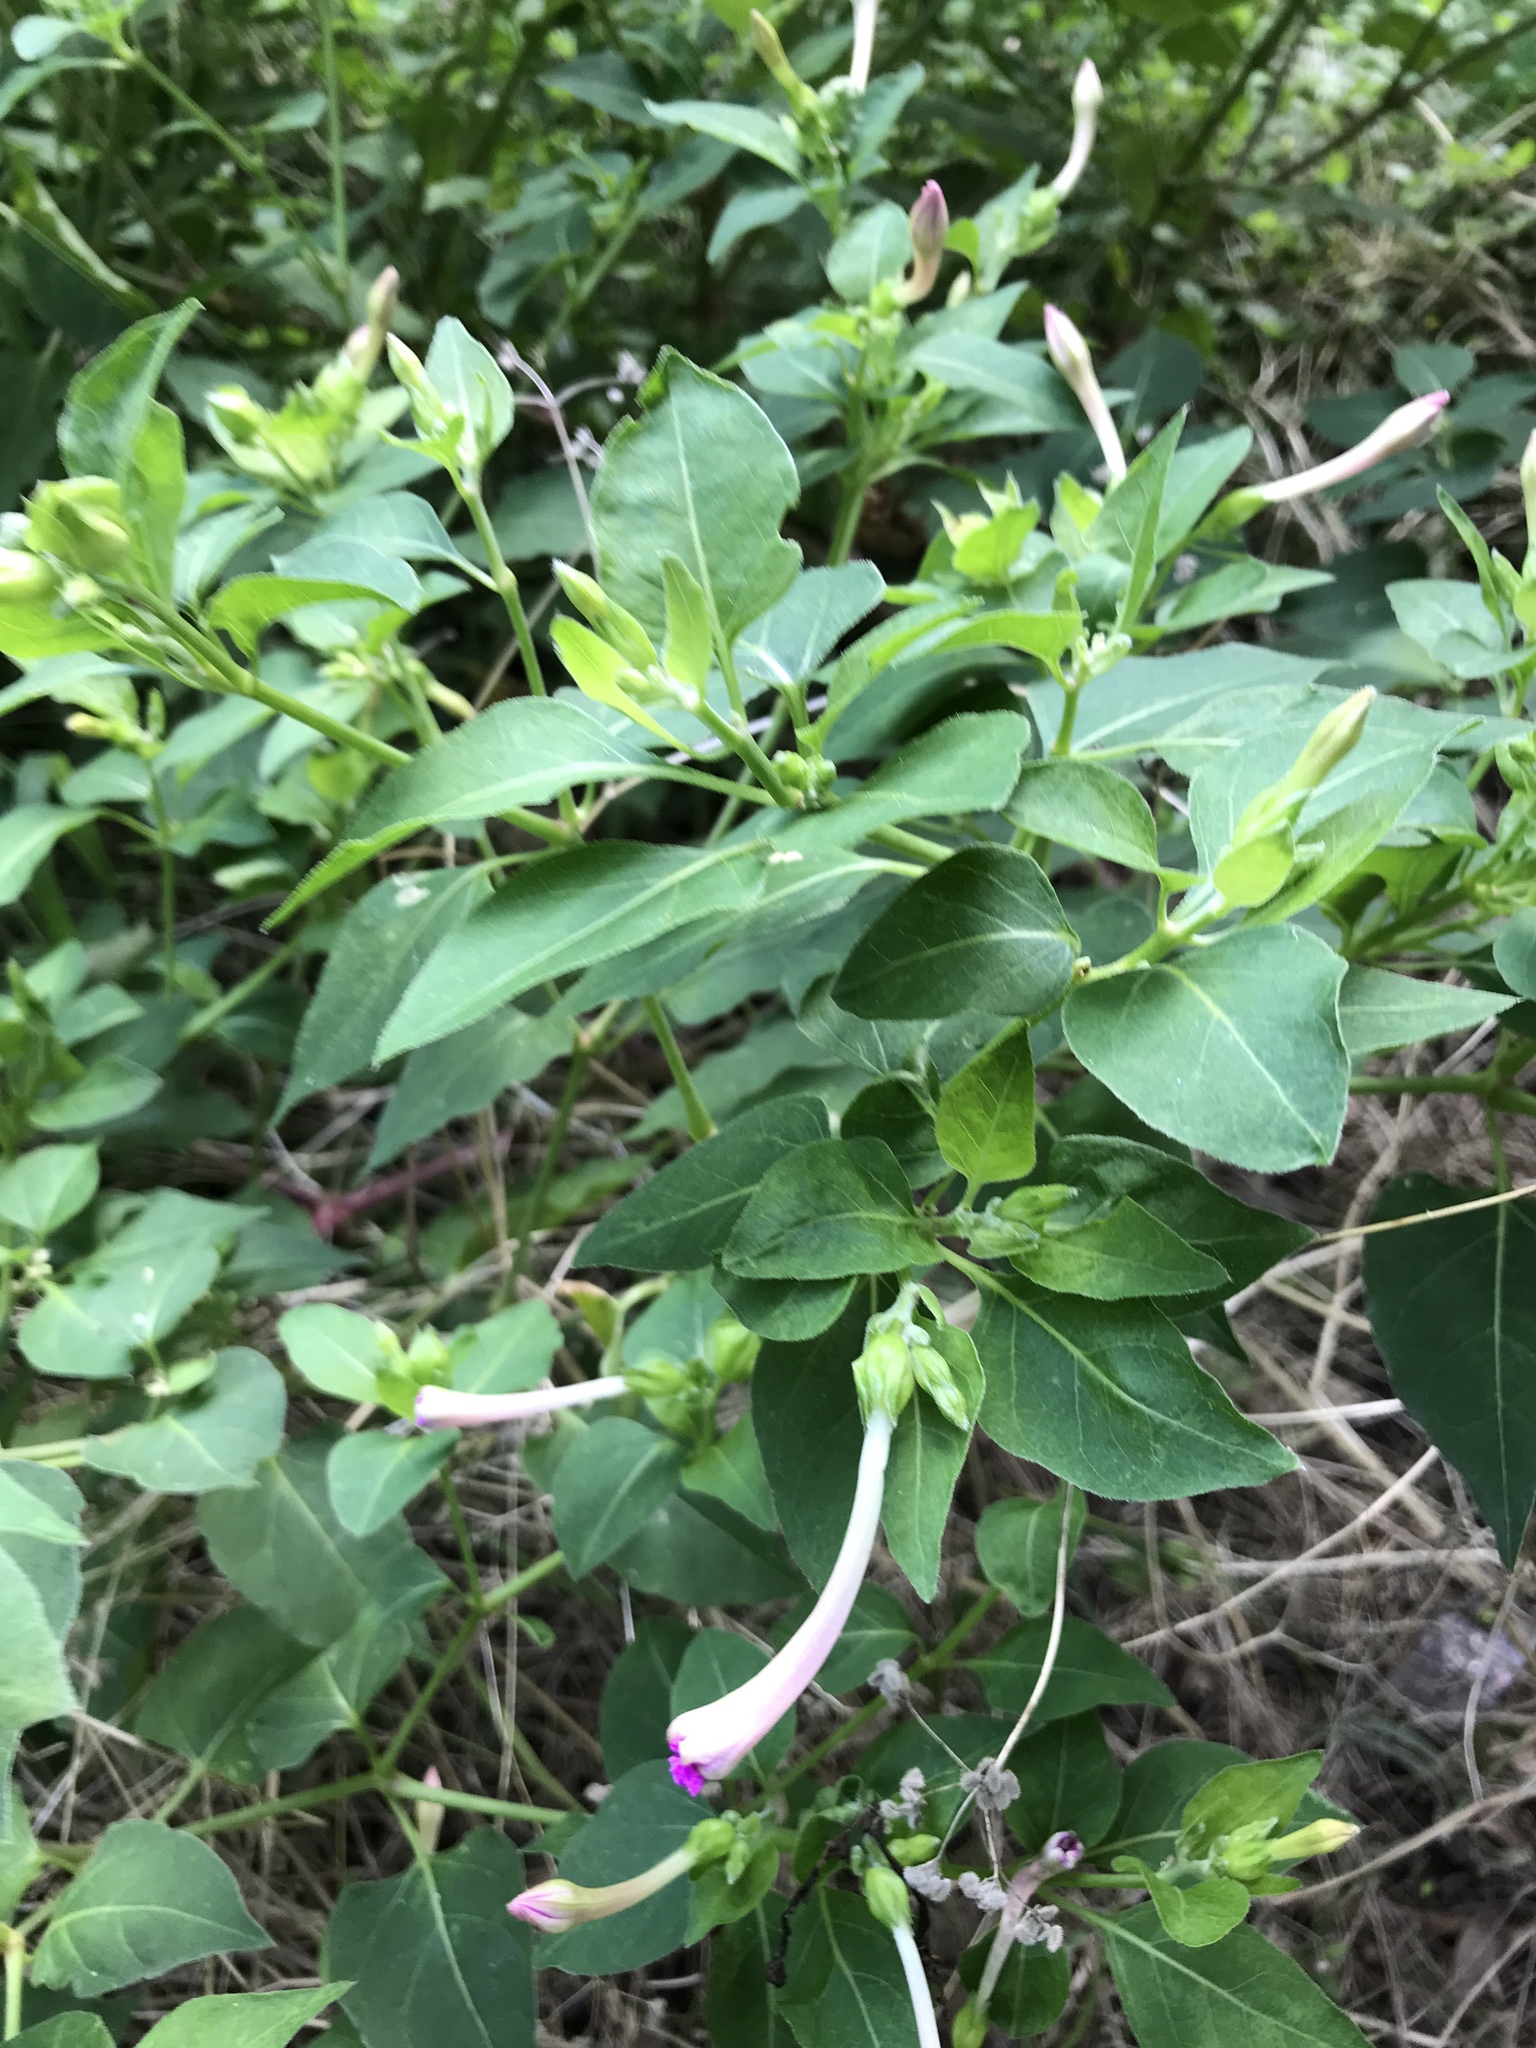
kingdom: Plantae
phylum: Tracheophyta
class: Magnoliopsida
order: Caryophyllales
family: Nyctaginaceae
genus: Mirabilis
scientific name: Mirabilis jalapa
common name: Marvel-of-peru
